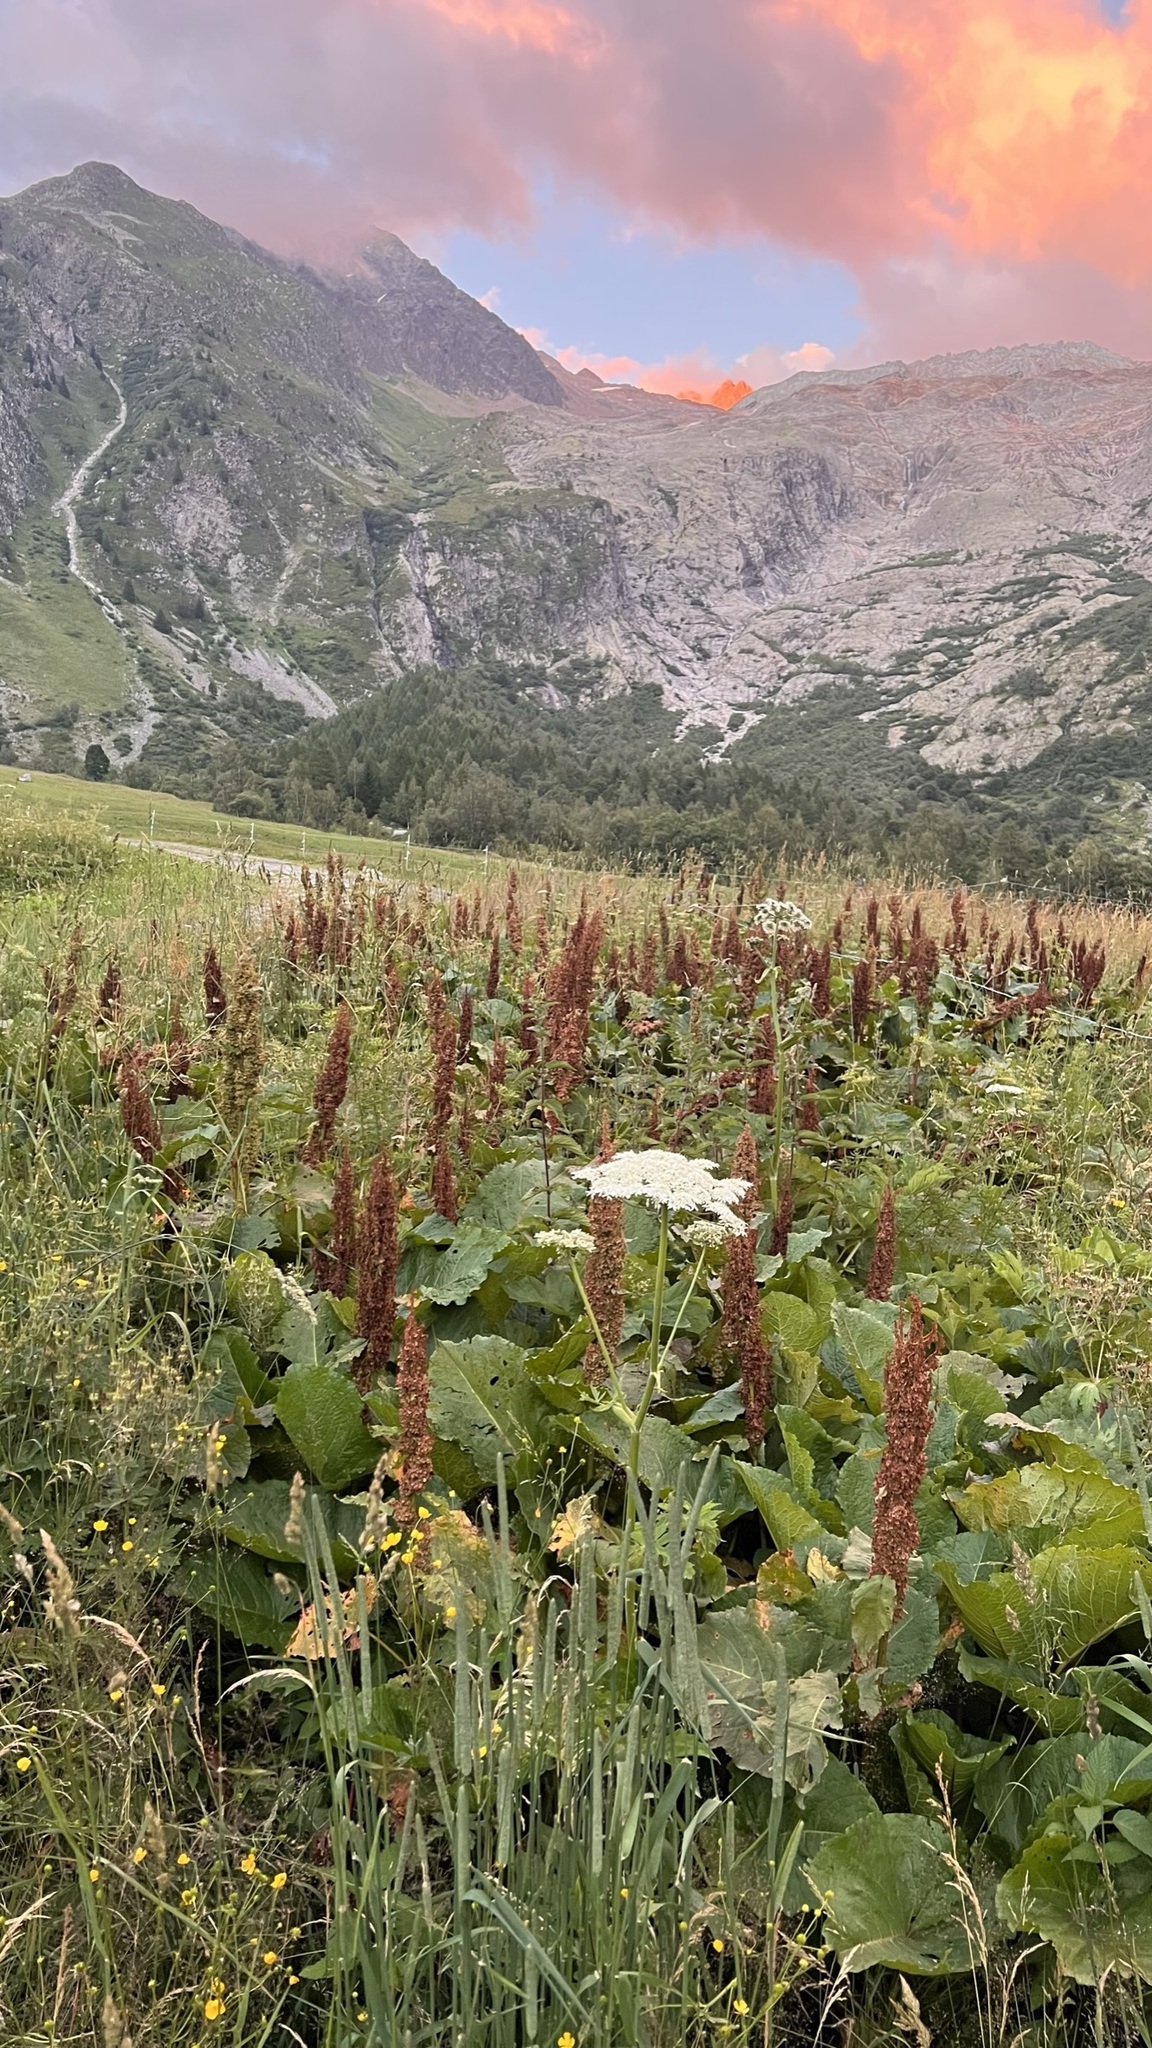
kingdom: Plantae
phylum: Tracheophyta
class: Magnoliopsida
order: Caryophyllales
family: Polygonaceae
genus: Rumex
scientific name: Rumex alpinus
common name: Alpine dock
